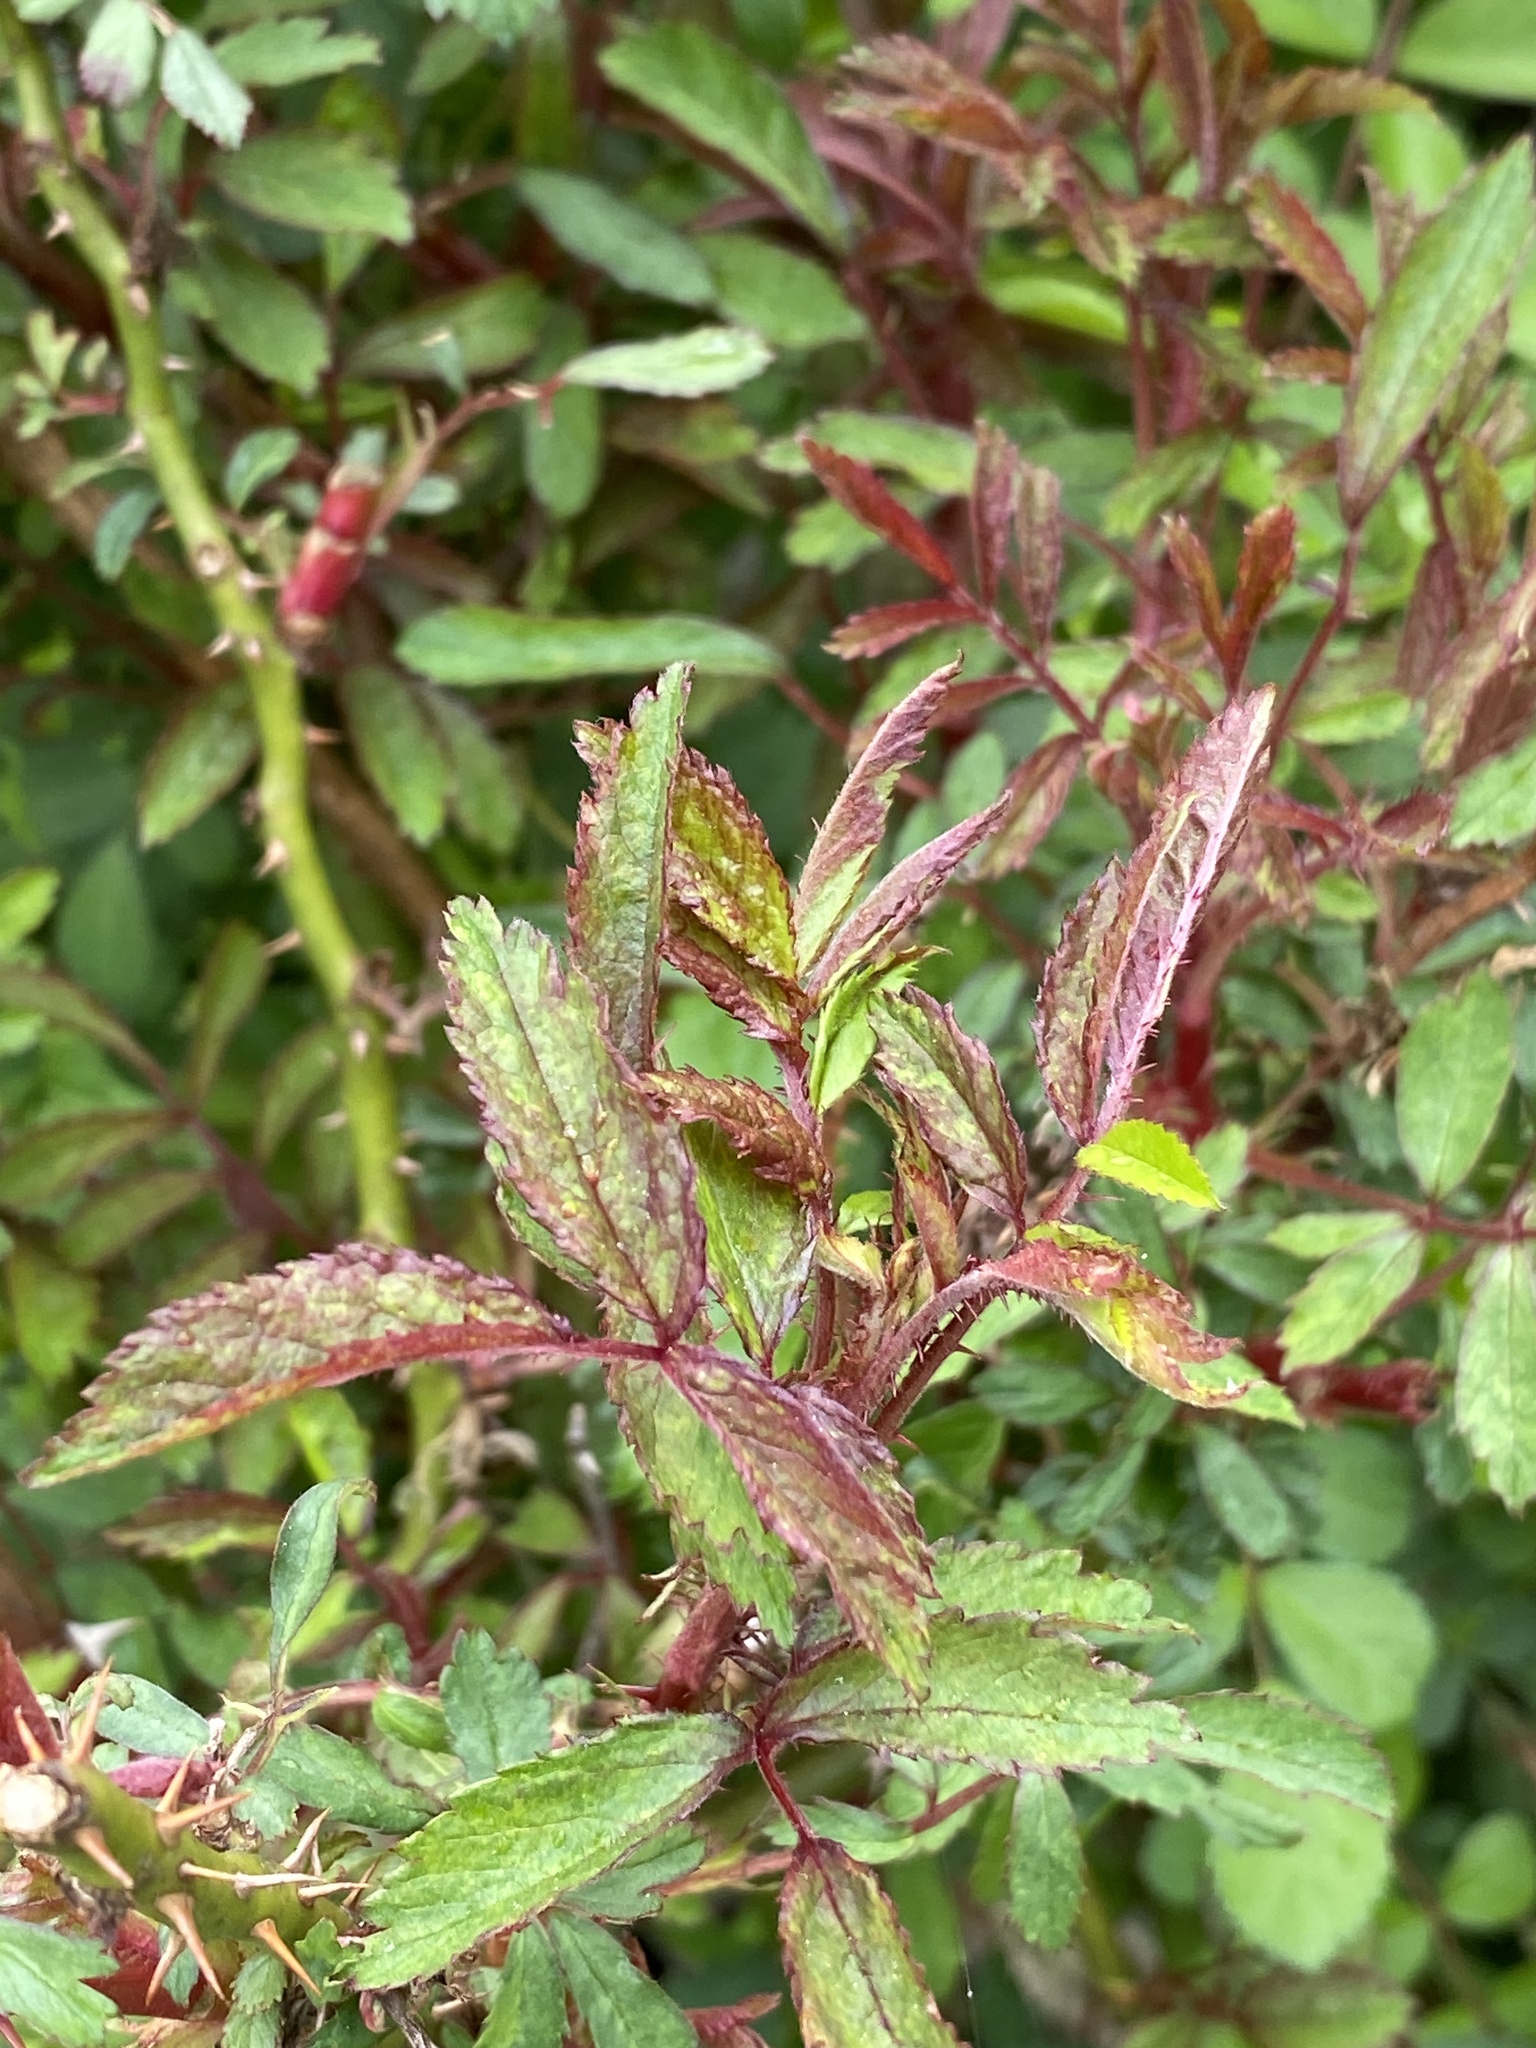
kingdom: Viruses
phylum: Negarnaviricota
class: Ellioviricetes
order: Bunyavirales
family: Fimoviridae
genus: Emaravirus
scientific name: Emaravirus rosae
